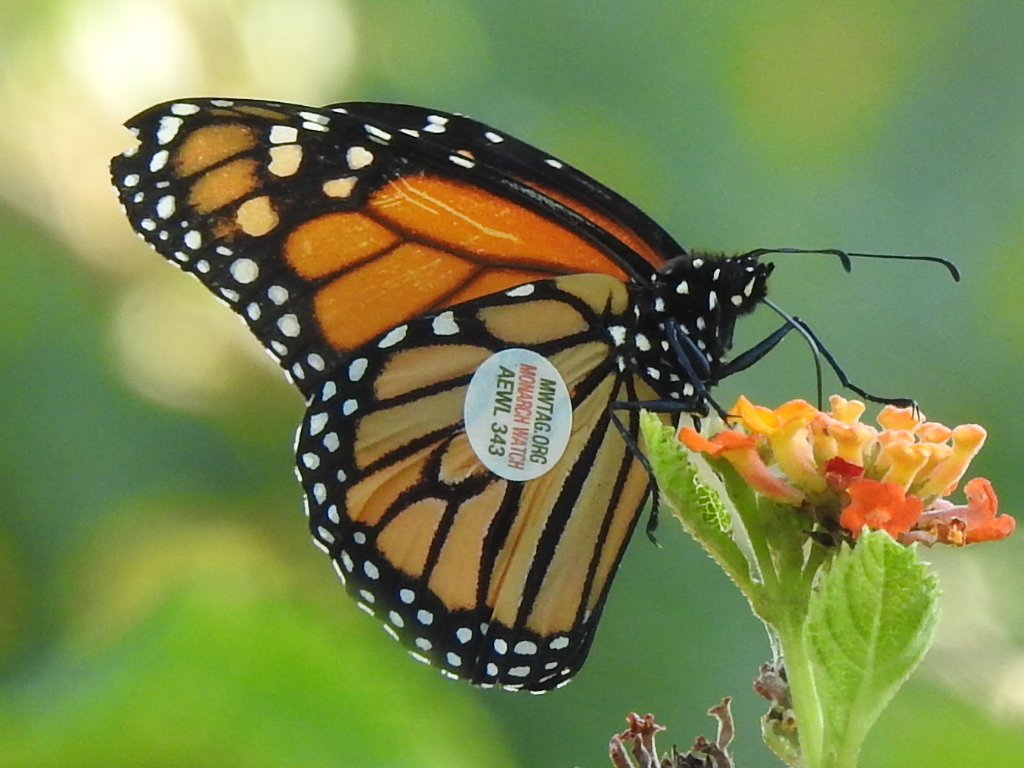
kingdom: Animalia
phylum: Arthropoda
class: Insecta
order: Lepidoptera
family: Nymphalidae
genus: Danaus
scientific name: Danaus plexippus
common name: Monarch
